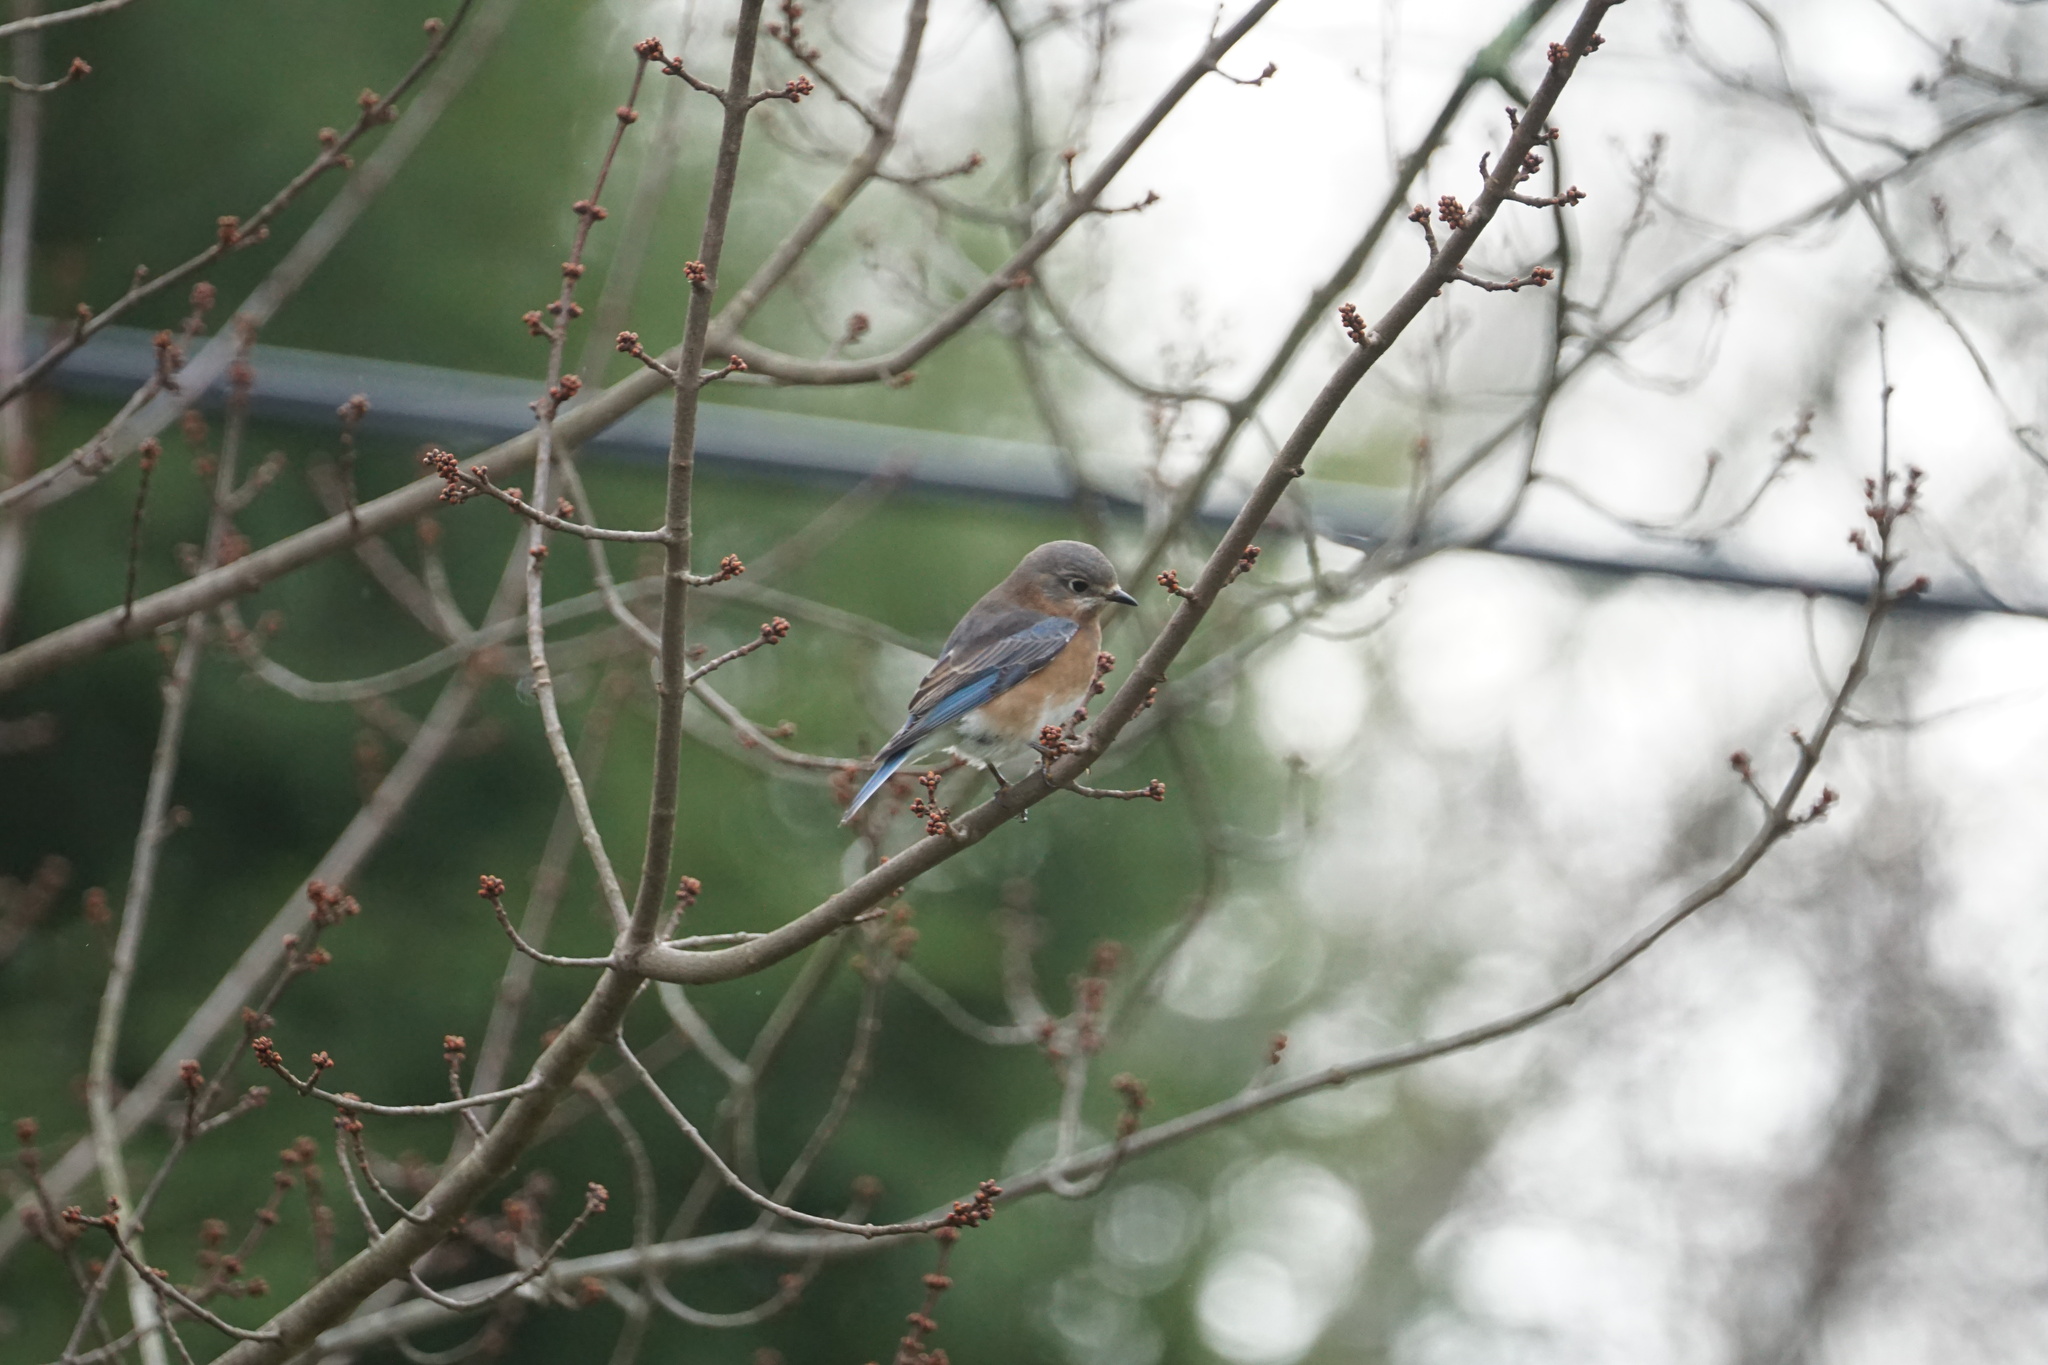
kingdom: Animalia
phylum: Chordata
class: Aves
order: Passeriformes
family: Turdidae
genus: Sialia
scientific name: Sialia sialis
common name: Eastern bluebird
